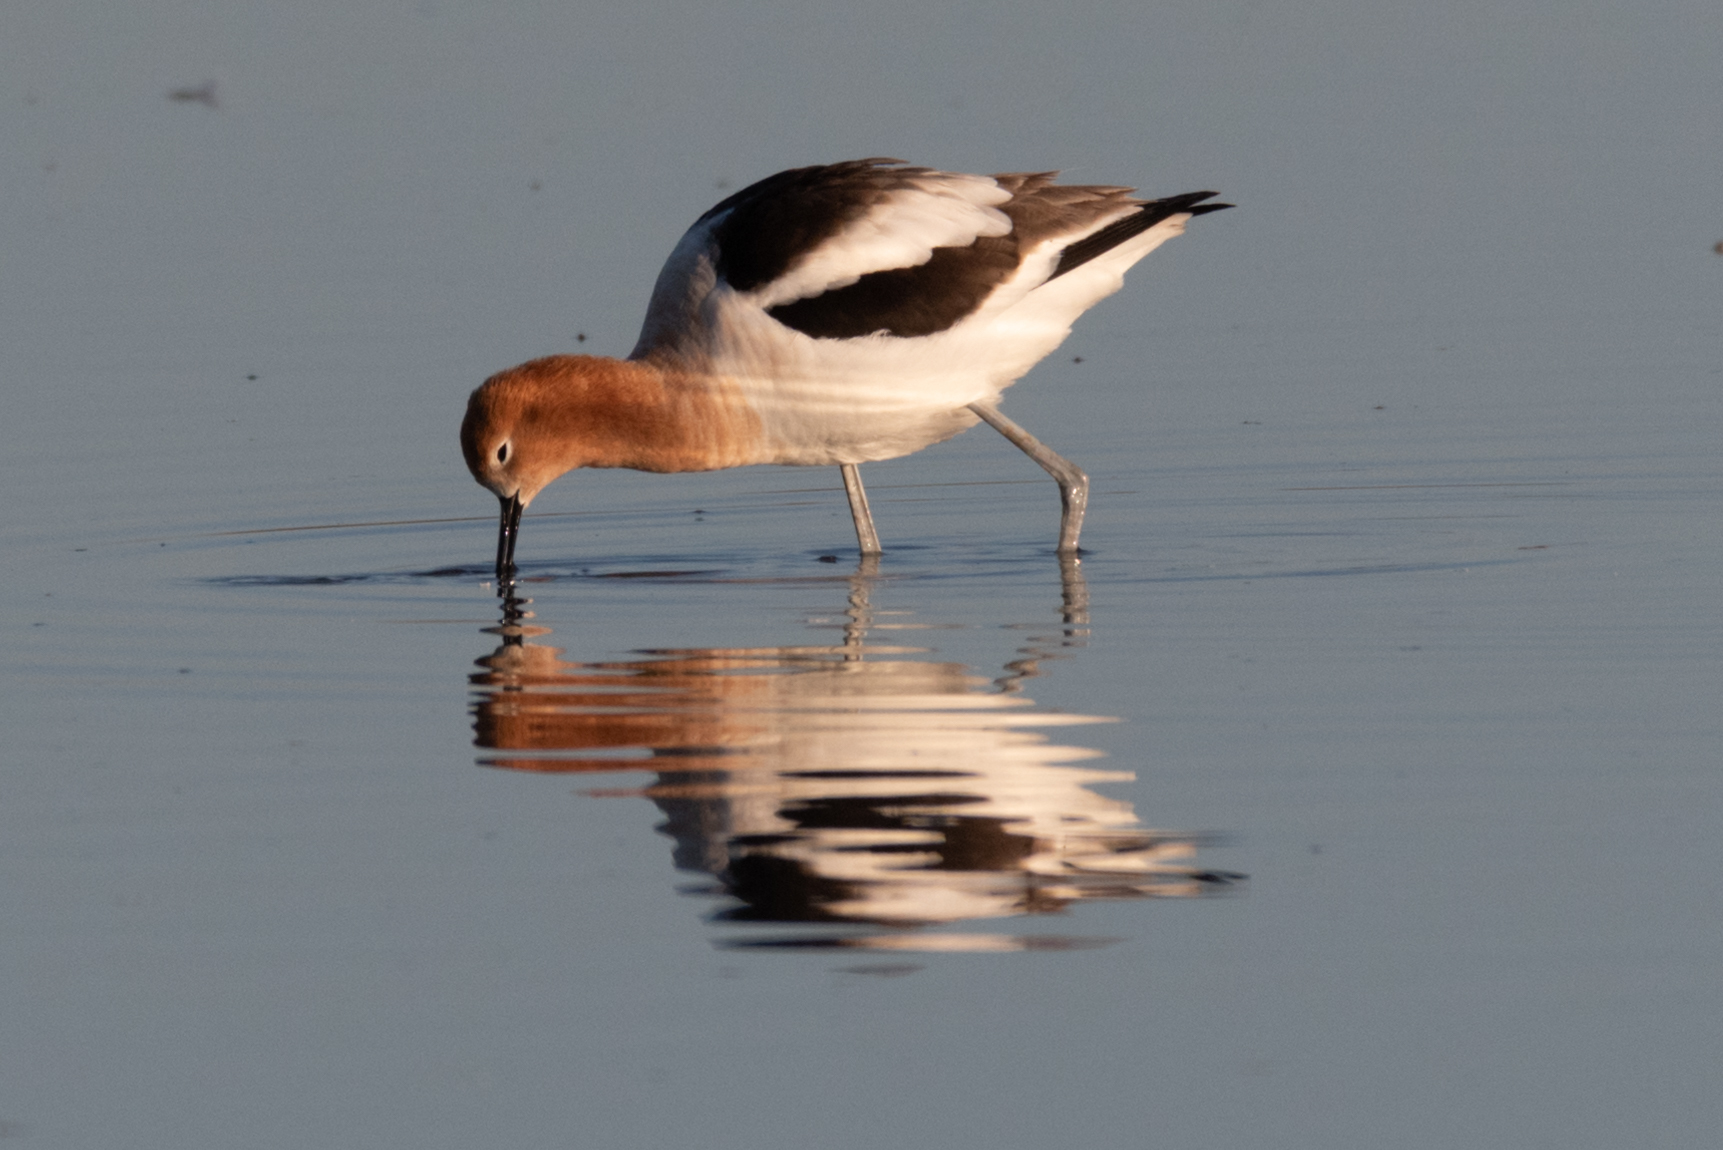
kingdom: Animalia
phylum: Chordata
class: Aves
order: Charadriiformes
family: Recurvirostridae
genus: Recurvirostra
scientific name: Recurvirostra americana
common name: American avocet
